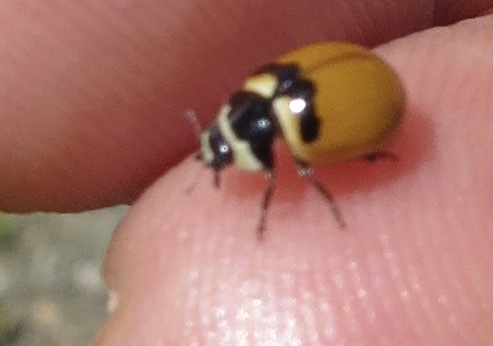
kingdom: Animalia
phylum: Arthropoda
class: Insecta
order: Coleoptera
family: Coccinellidae
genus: Coccinella
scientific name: Coccinella trifasciata
